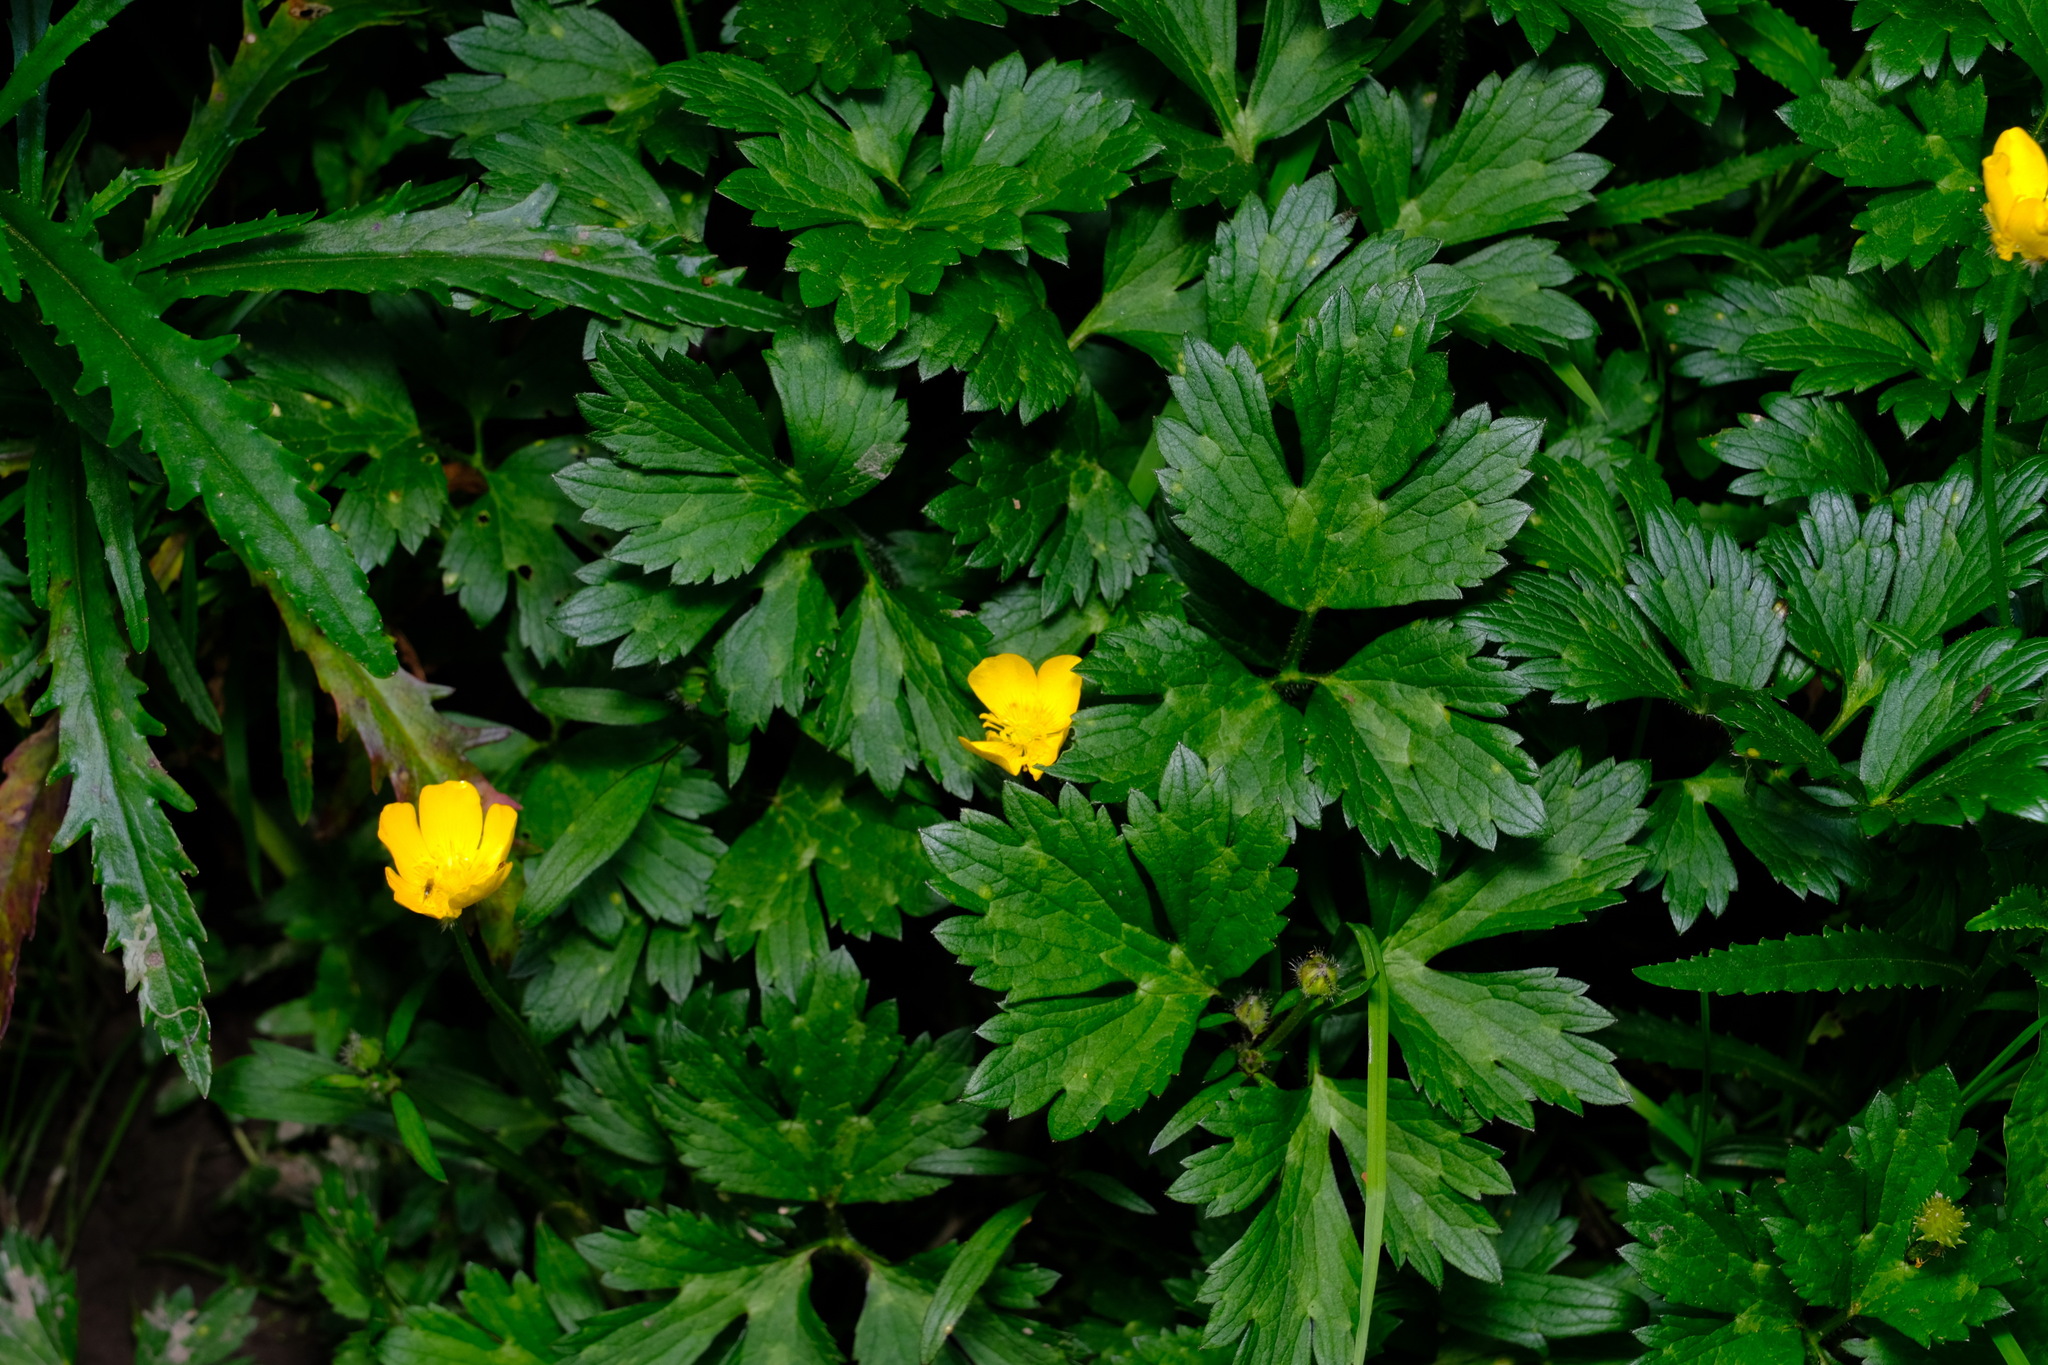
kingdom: Plantae
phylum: Tracheophyta
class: Magnoliopsida
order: Ranunculales
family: Ranunculaceae
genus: Ranunculus
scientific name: Ranunculus repens
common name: Creeping buttercup
